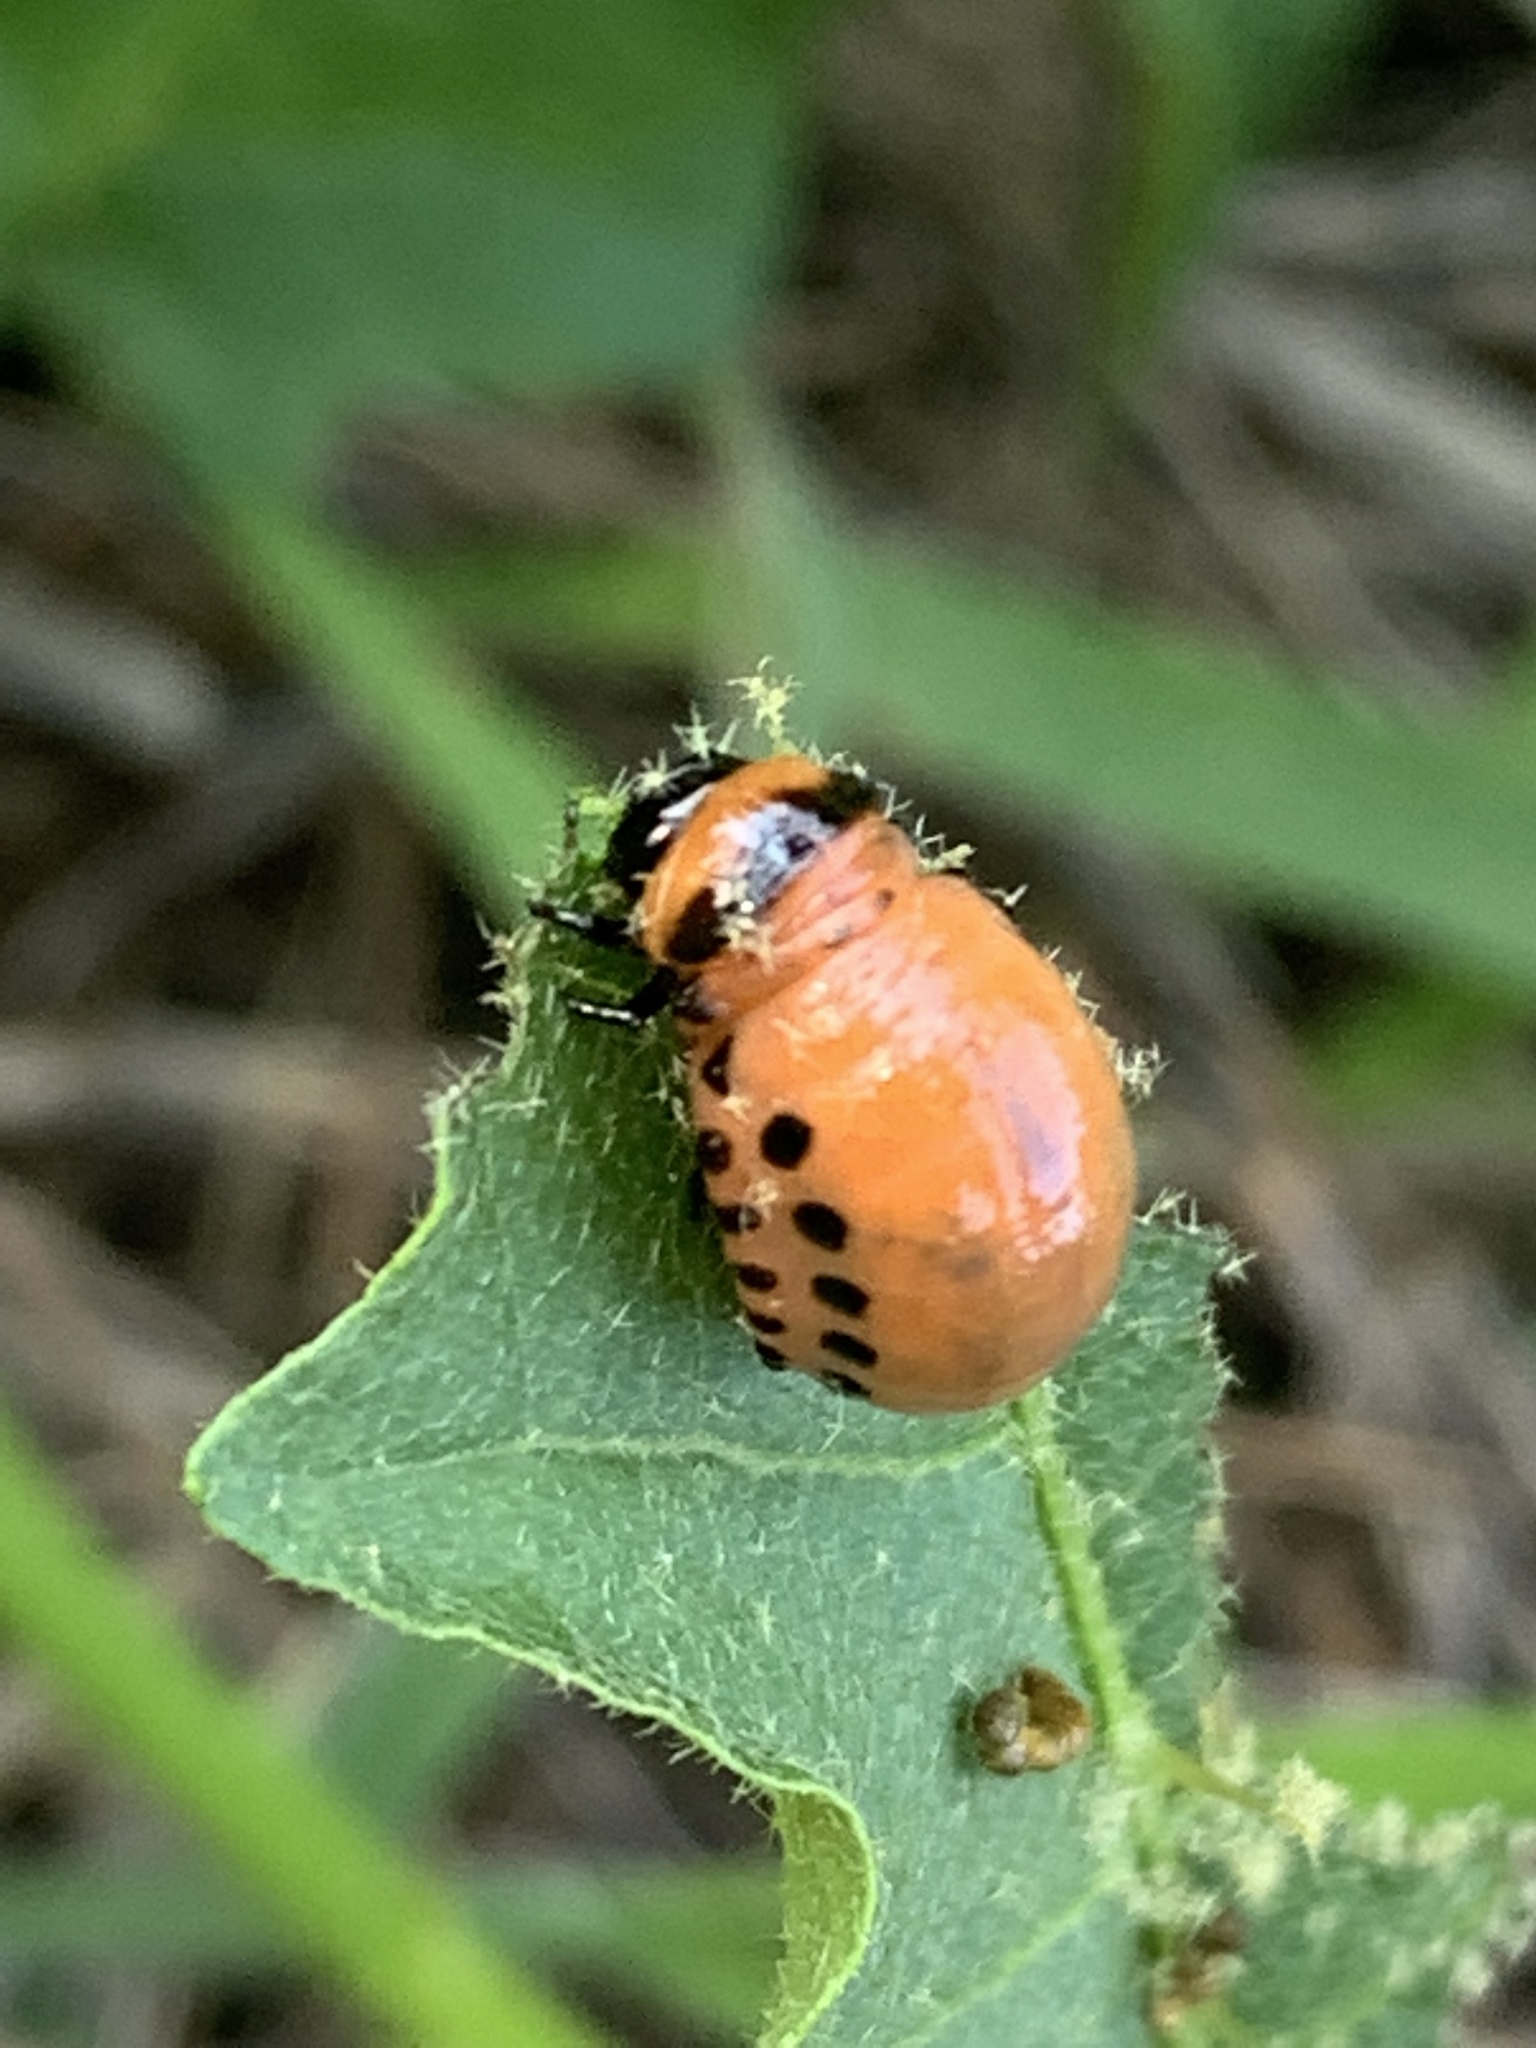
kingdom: Animalia
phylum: Arthropoda
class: Insecta
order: Coleoptera
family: Chrysomelidae
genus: Leptinotarsa
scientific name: Leptinotarsa decemlineata
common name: Colorado potato beetle
